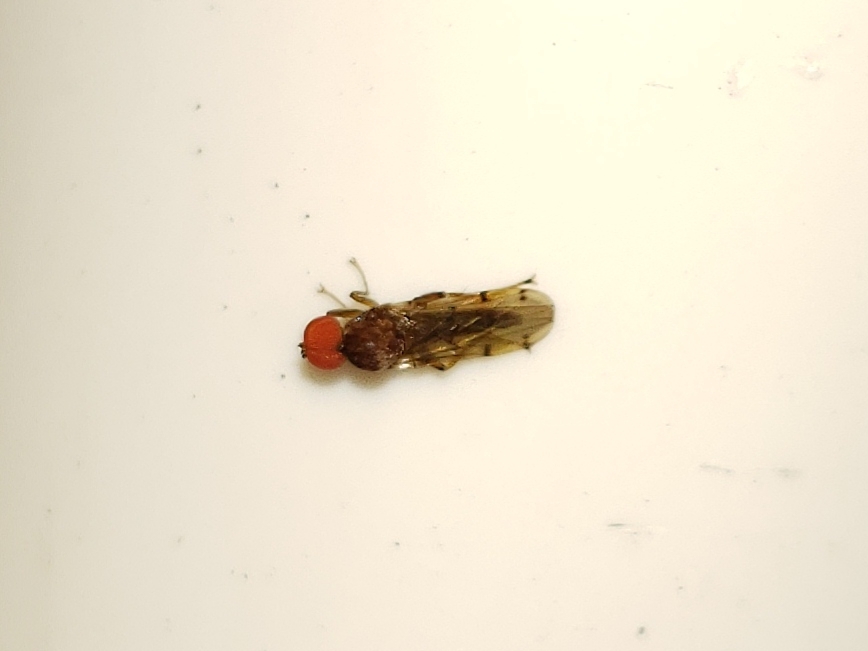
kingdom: Animalia
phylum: Arthropoda
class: Insecta
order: Diptera
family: Hybotidae
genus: Syneches
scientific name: Syneches simplex
